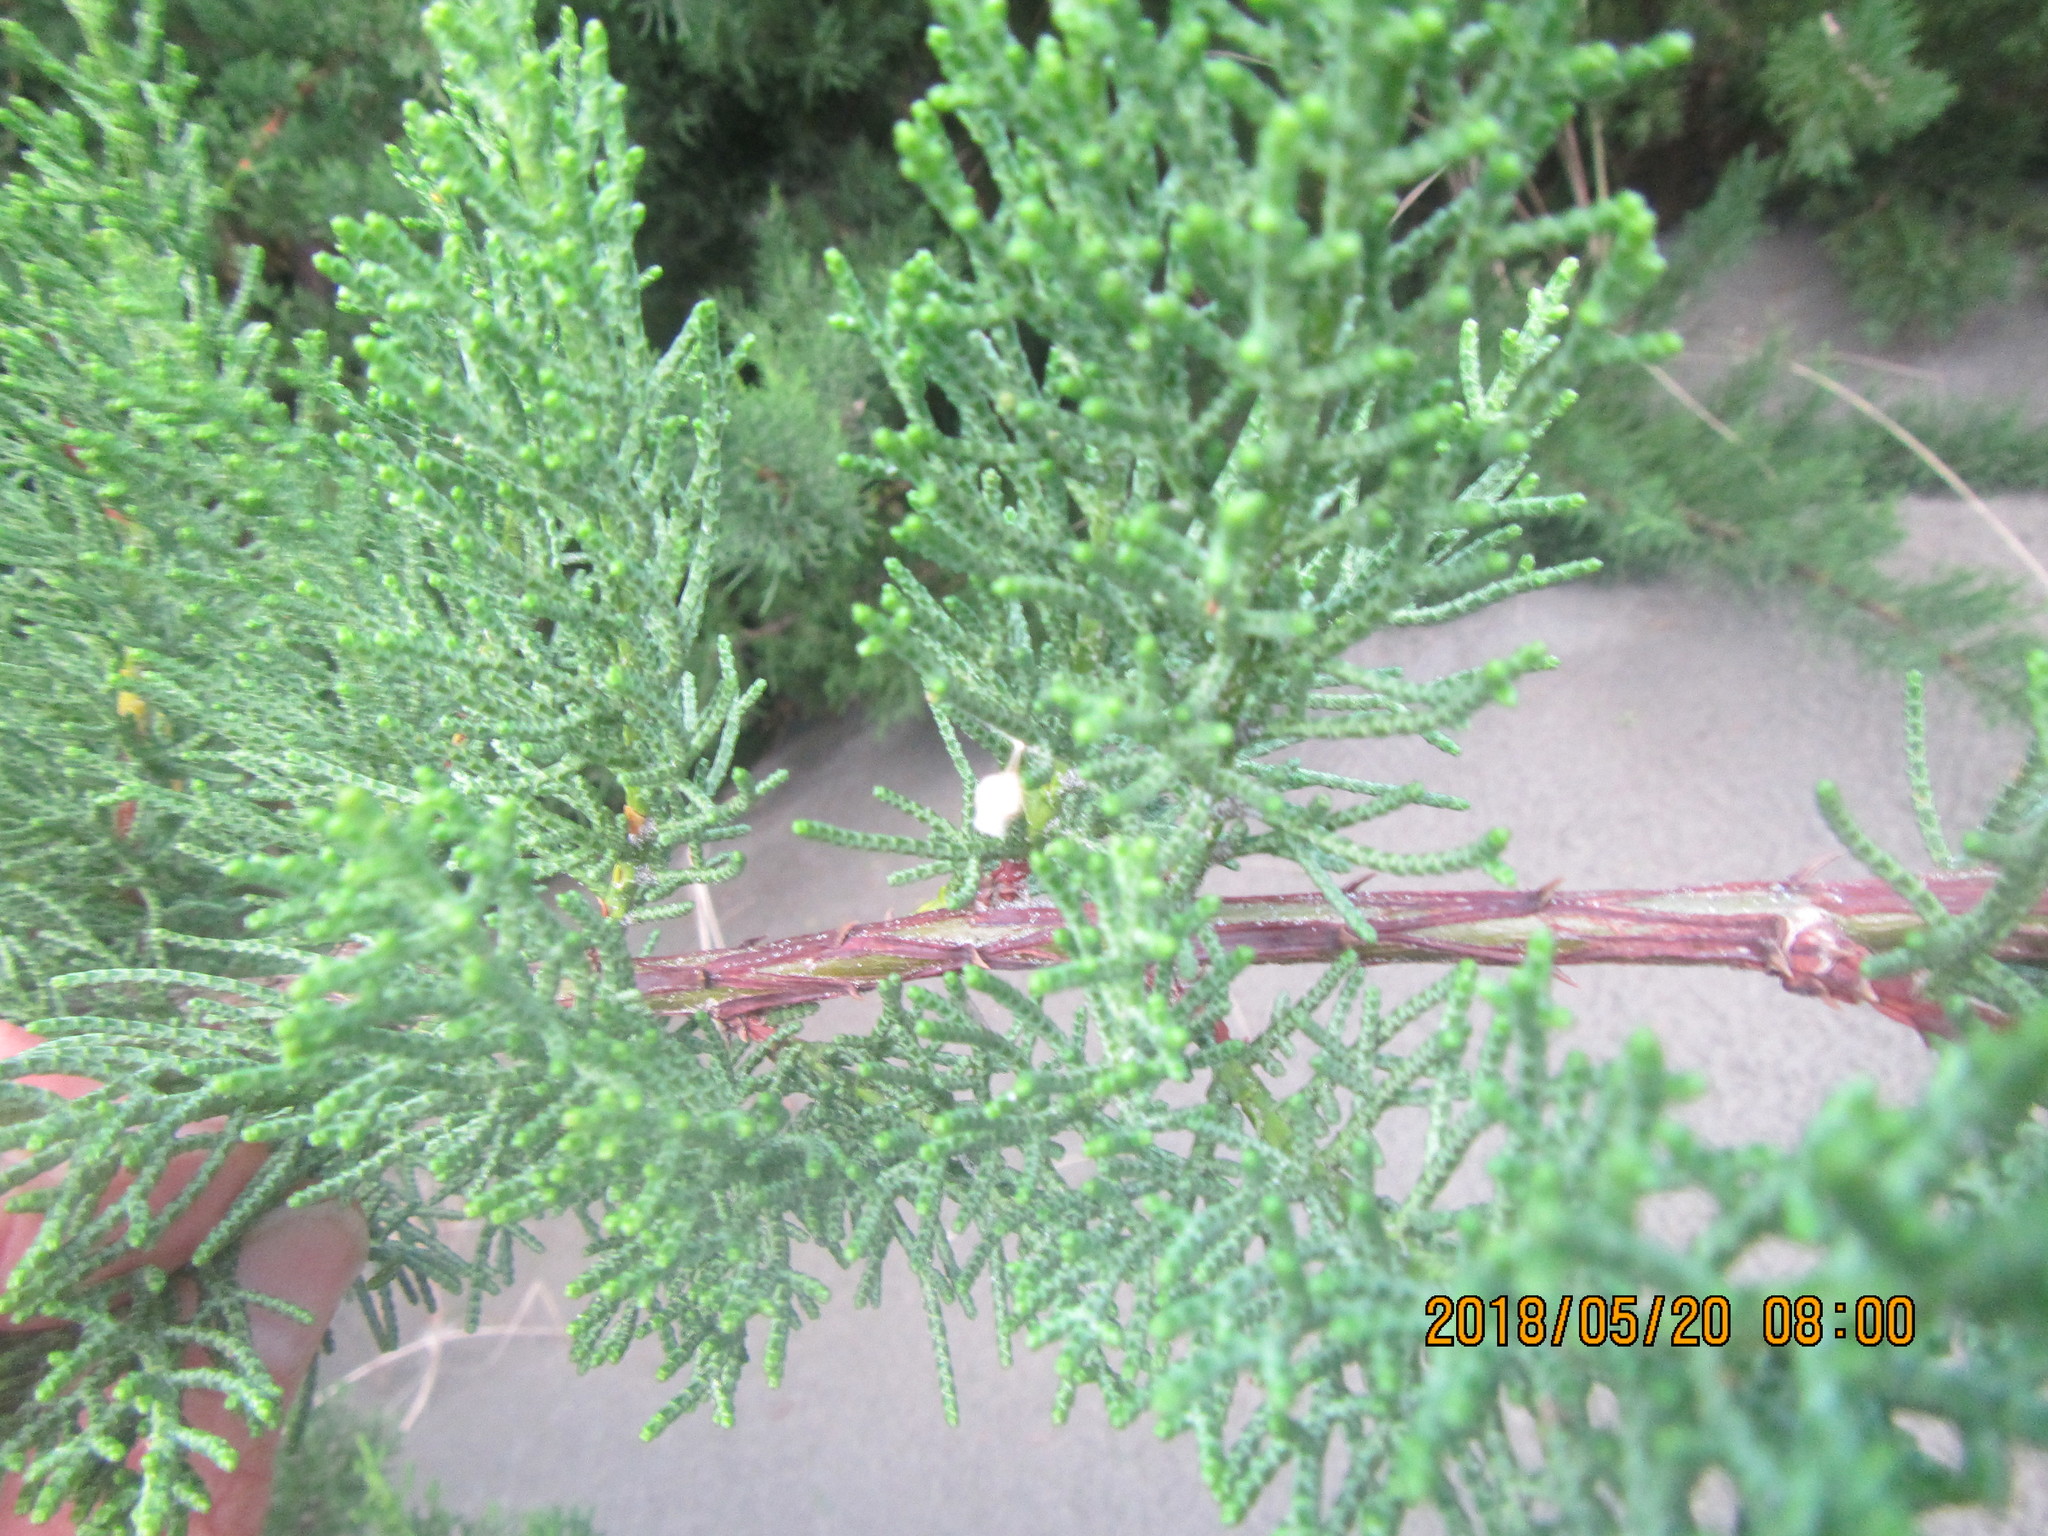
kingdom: Animalia
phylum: Arthropoda
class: Arachnida
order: Araneae
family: Theridiidae
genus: Argyrodes
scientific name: Argyrodes antipodianus
